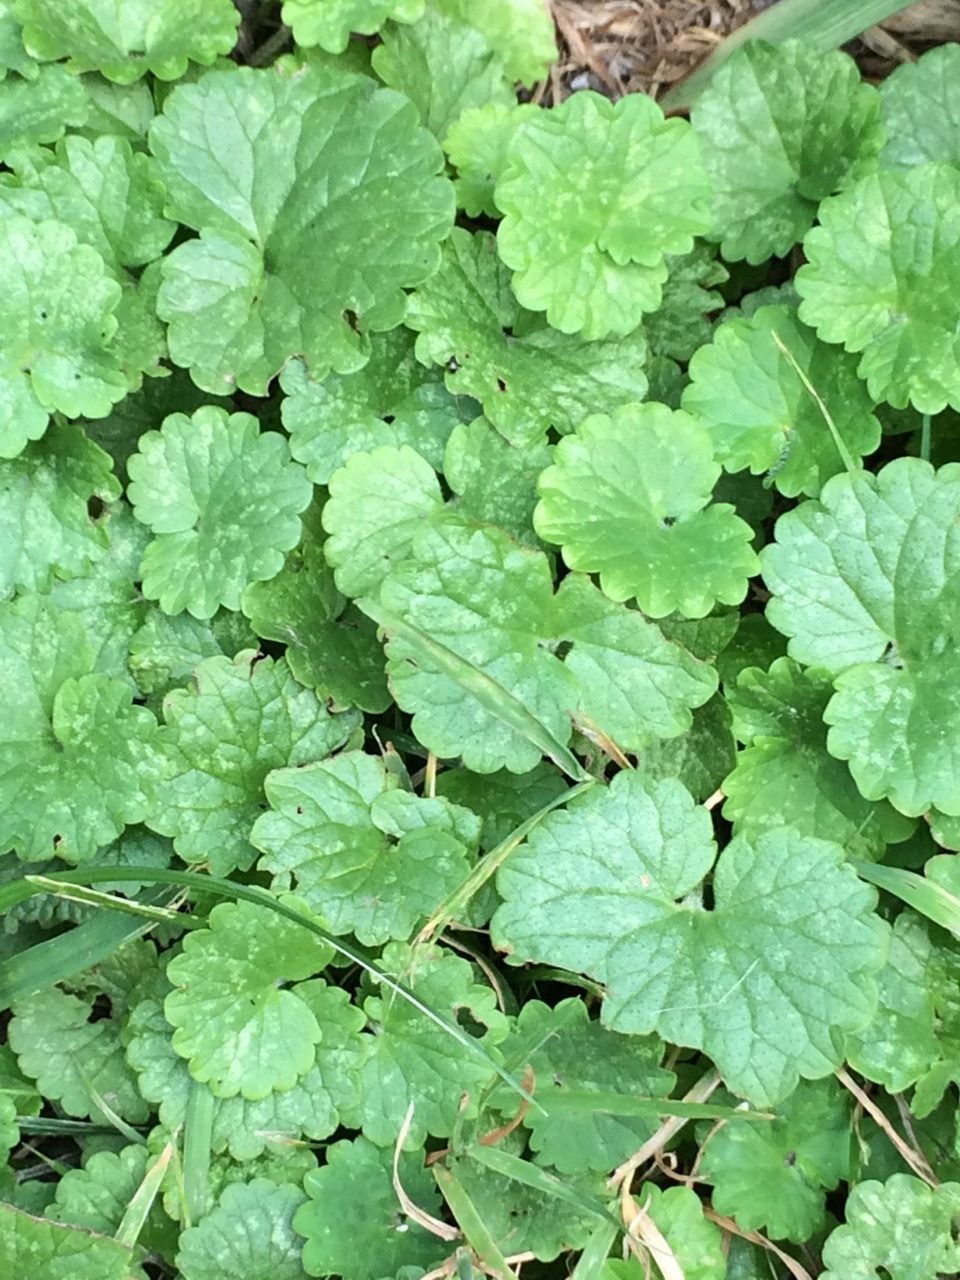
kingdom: Plantae
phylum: Tracheophyta
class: Magnoliopsida
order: Lamiales
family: Lamiaceae
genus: Glechoma
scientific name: Glechoma hederacea
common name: Ground ivy
